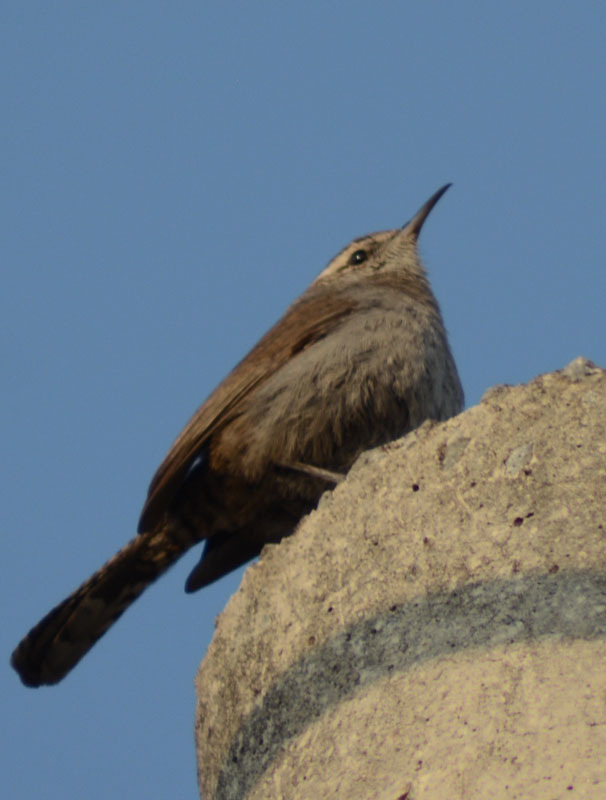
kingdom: Animalia
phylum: Chordata
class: Aves
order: Passeriformes
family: Troglodytidae
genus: Thryomanes
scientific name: Thryomanes bewickii
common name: Bewick's wren
